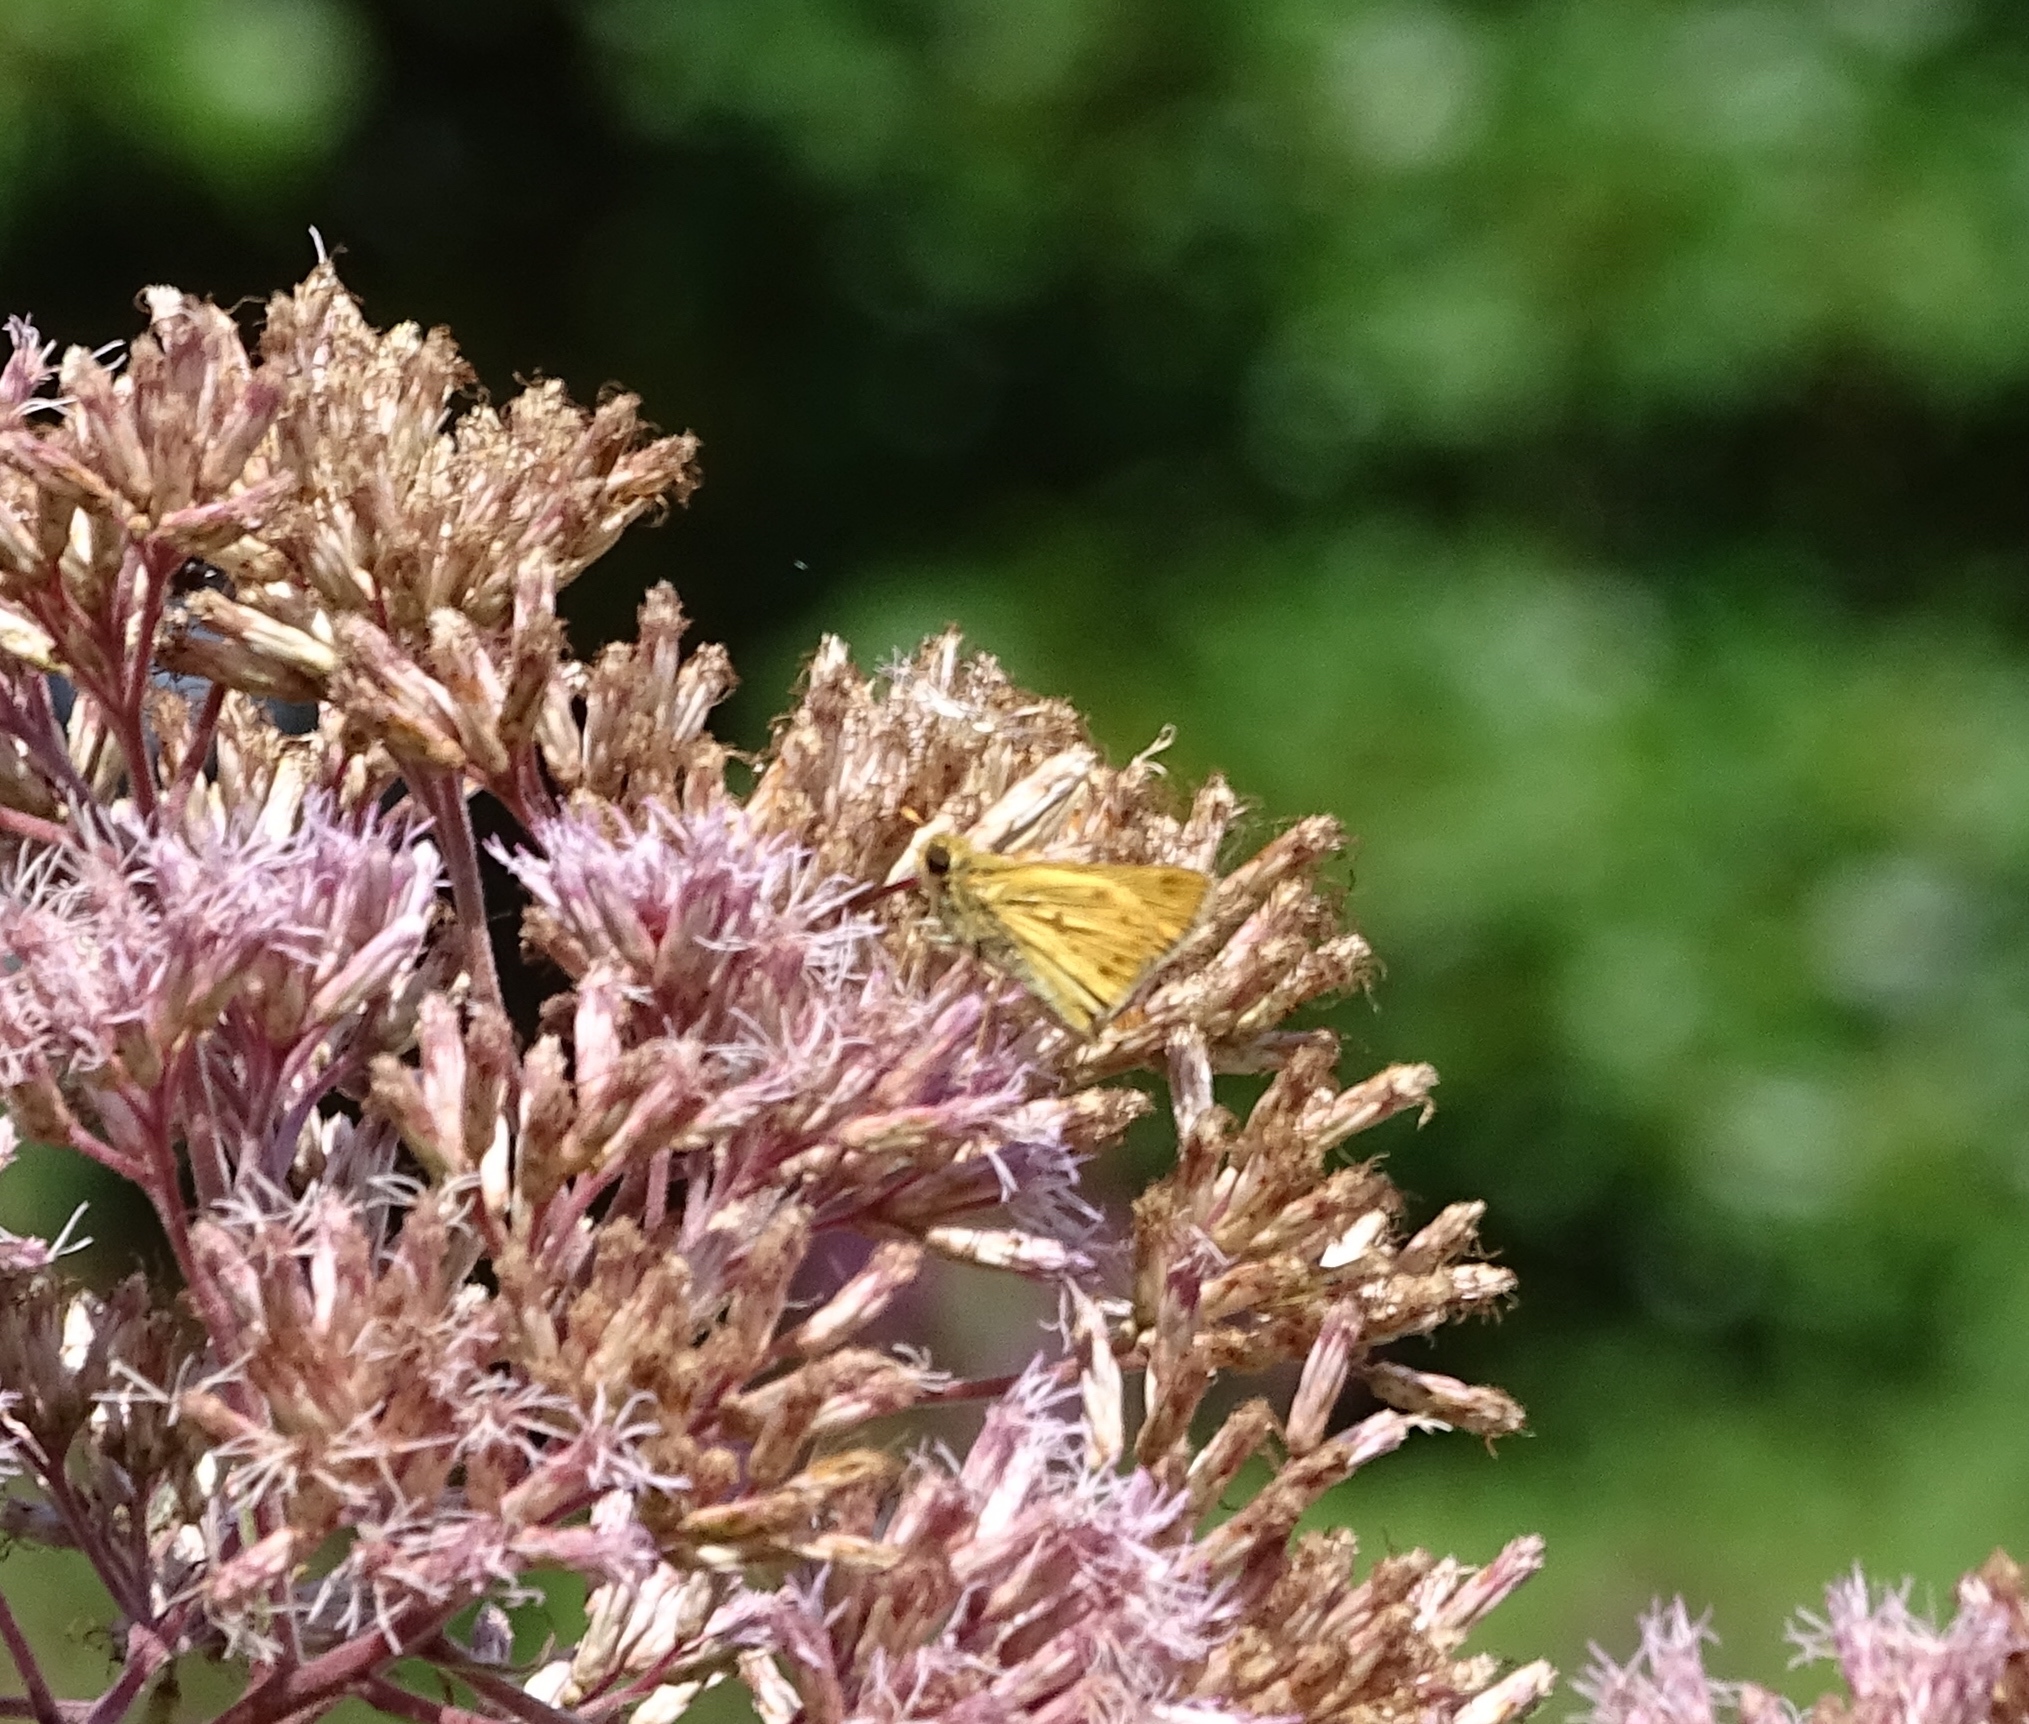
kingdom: Animalia
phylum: Arthropoda
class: Insecta
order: Lepidoptera
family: Hesperiidae
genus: Hylephila
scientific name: Hylephila phyleus
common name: Fiery skipper
